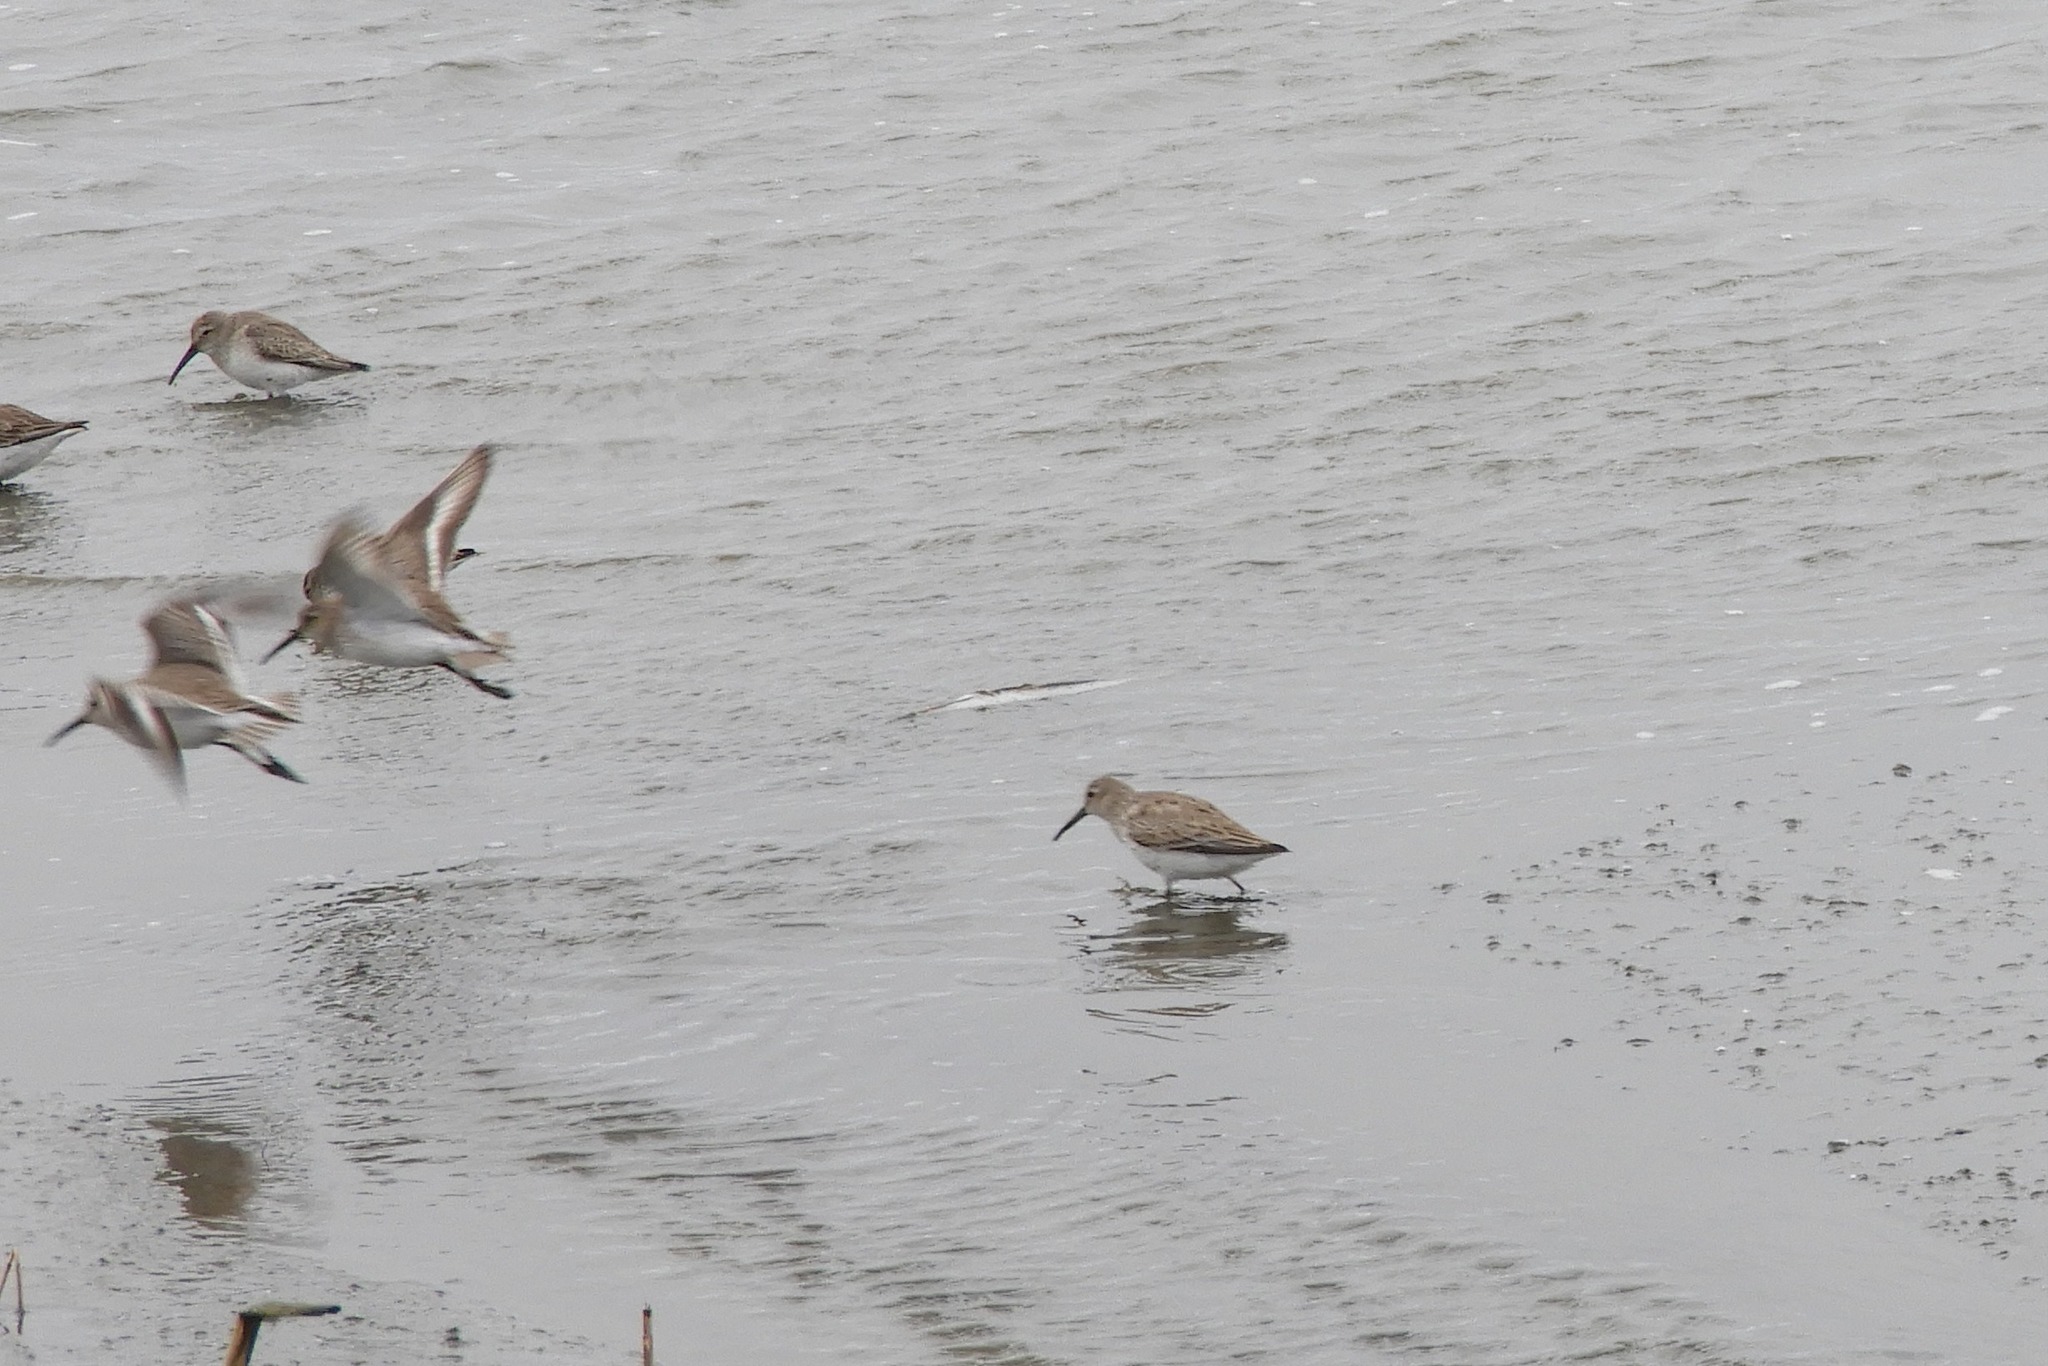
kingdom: Animalia
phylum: Chordata
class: Aves
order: Charadriiformes
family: Scolopacidae
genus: Calidris
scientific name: Calidris alpina
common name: Dunlin
